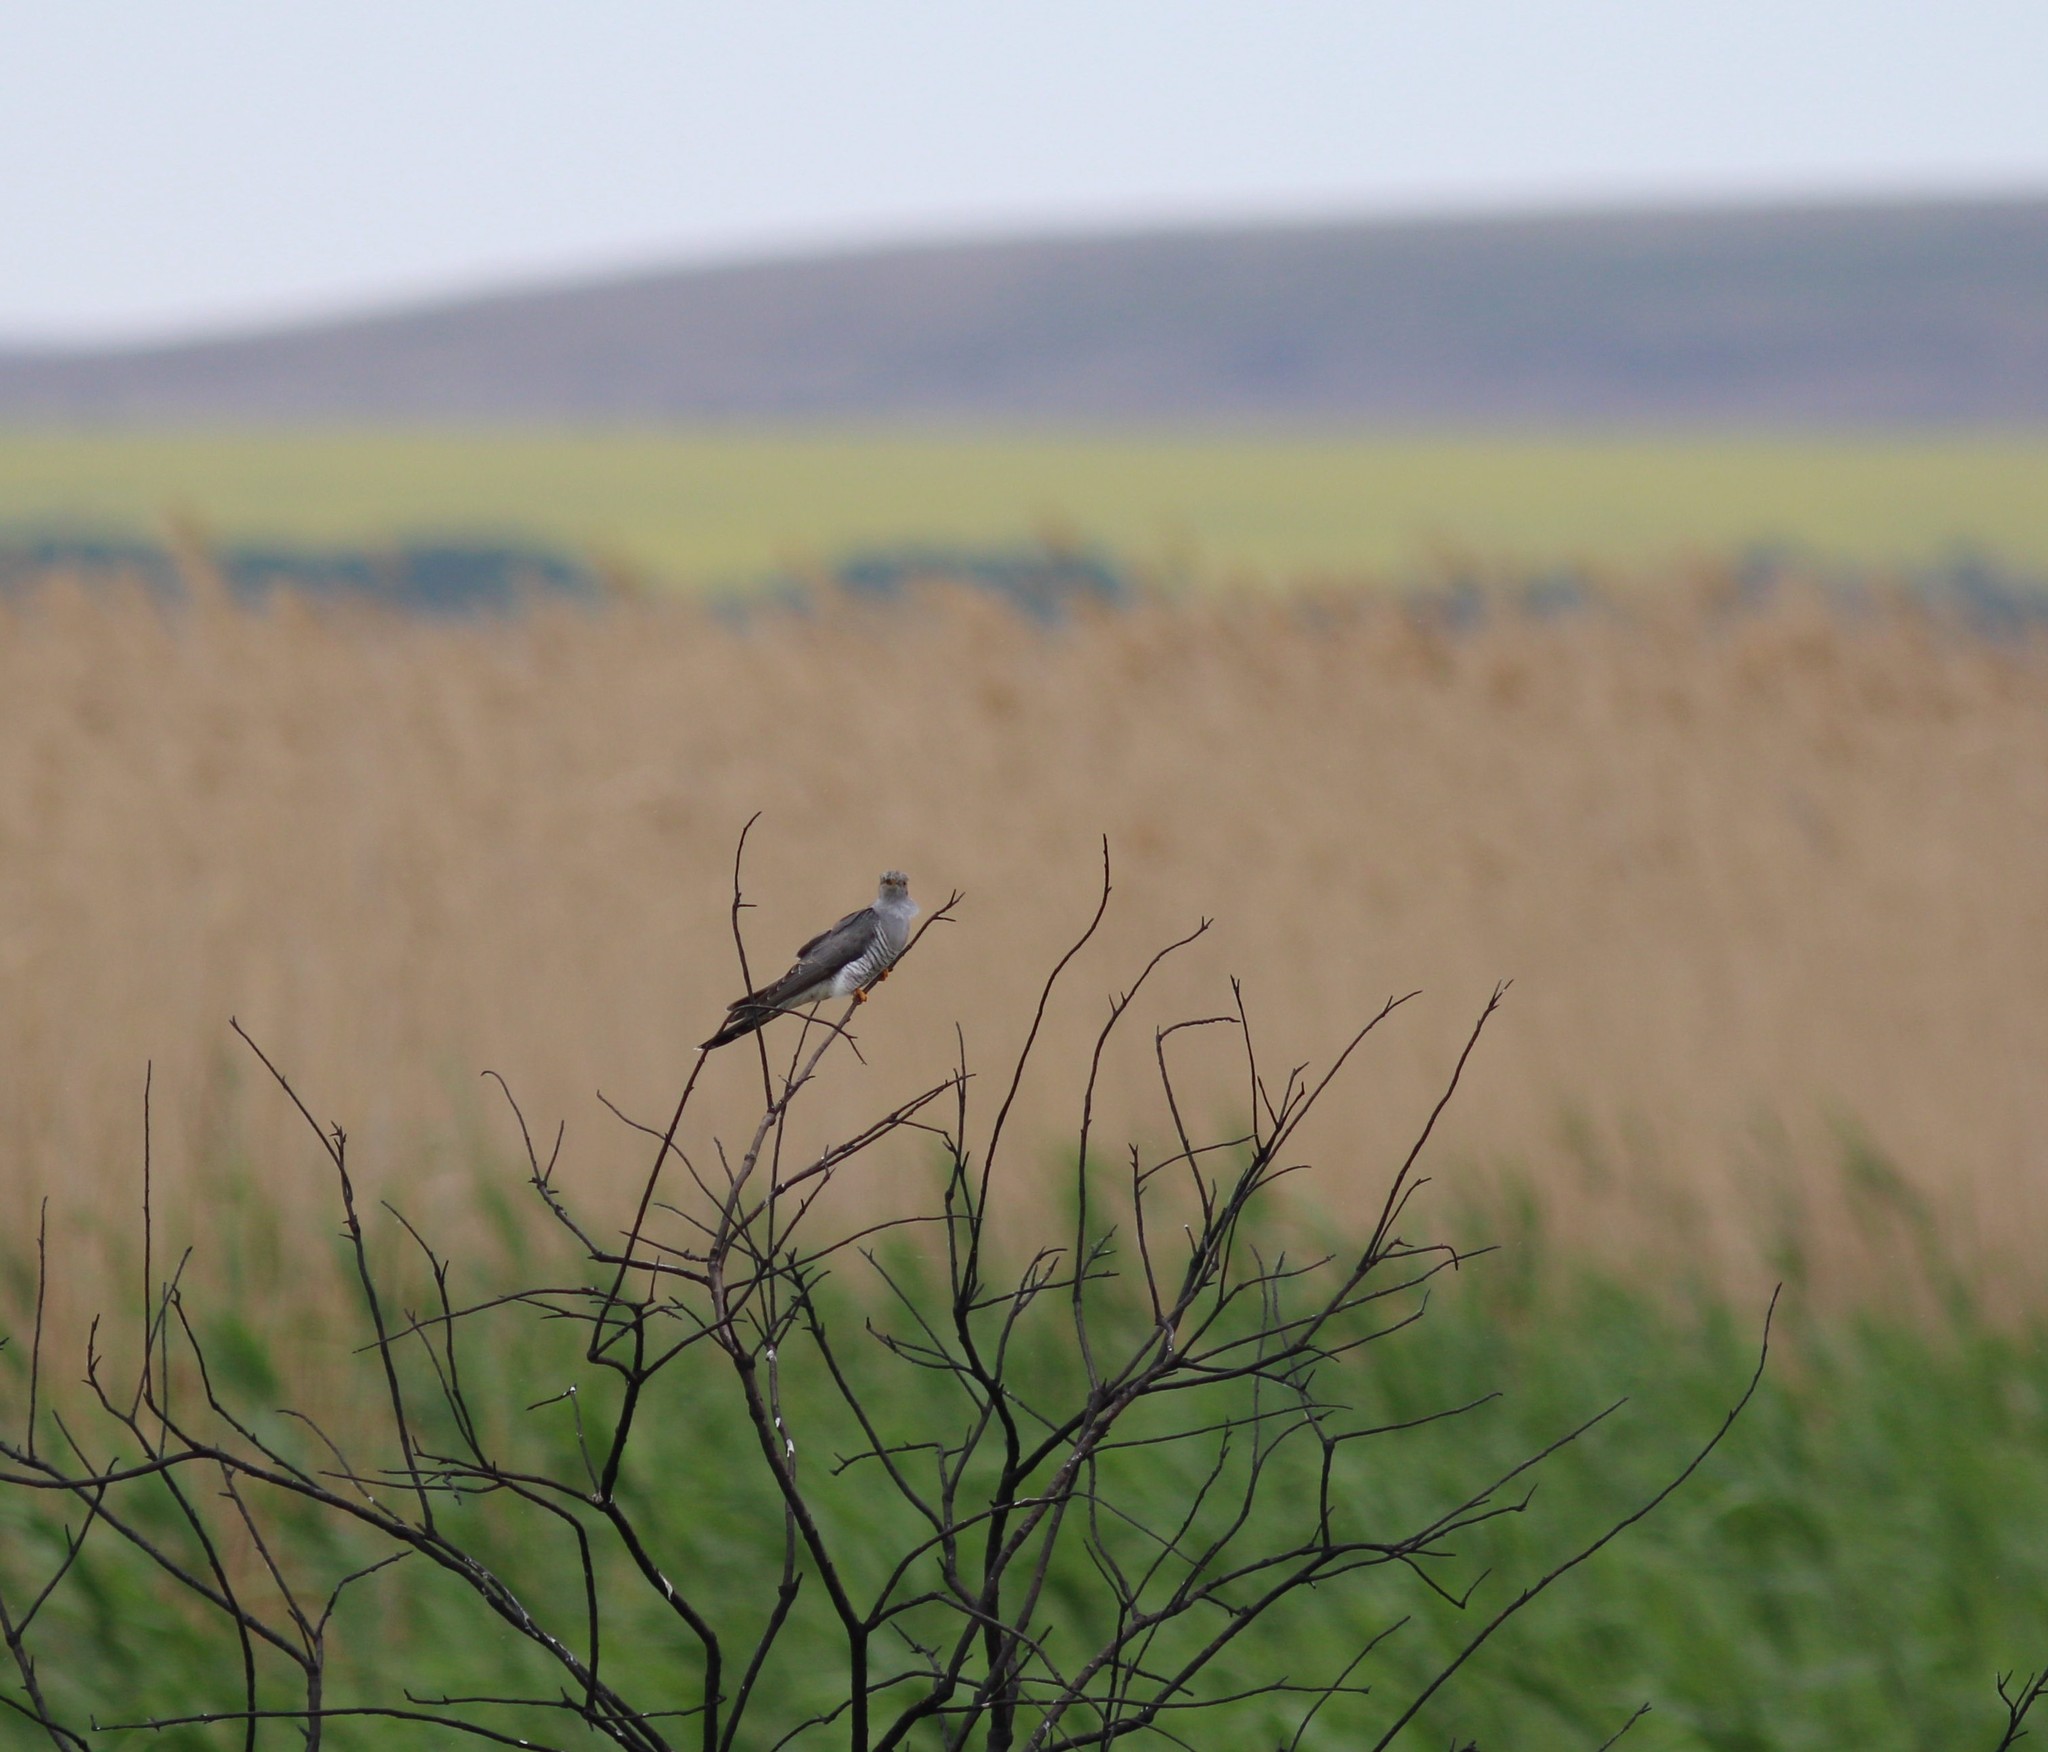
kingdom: Animalia
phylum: Chordata
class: Aves
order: Cuculiformes
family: Cuculidae
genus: Cuculus
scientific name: Cuculus canorus
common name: Common cuckoo
